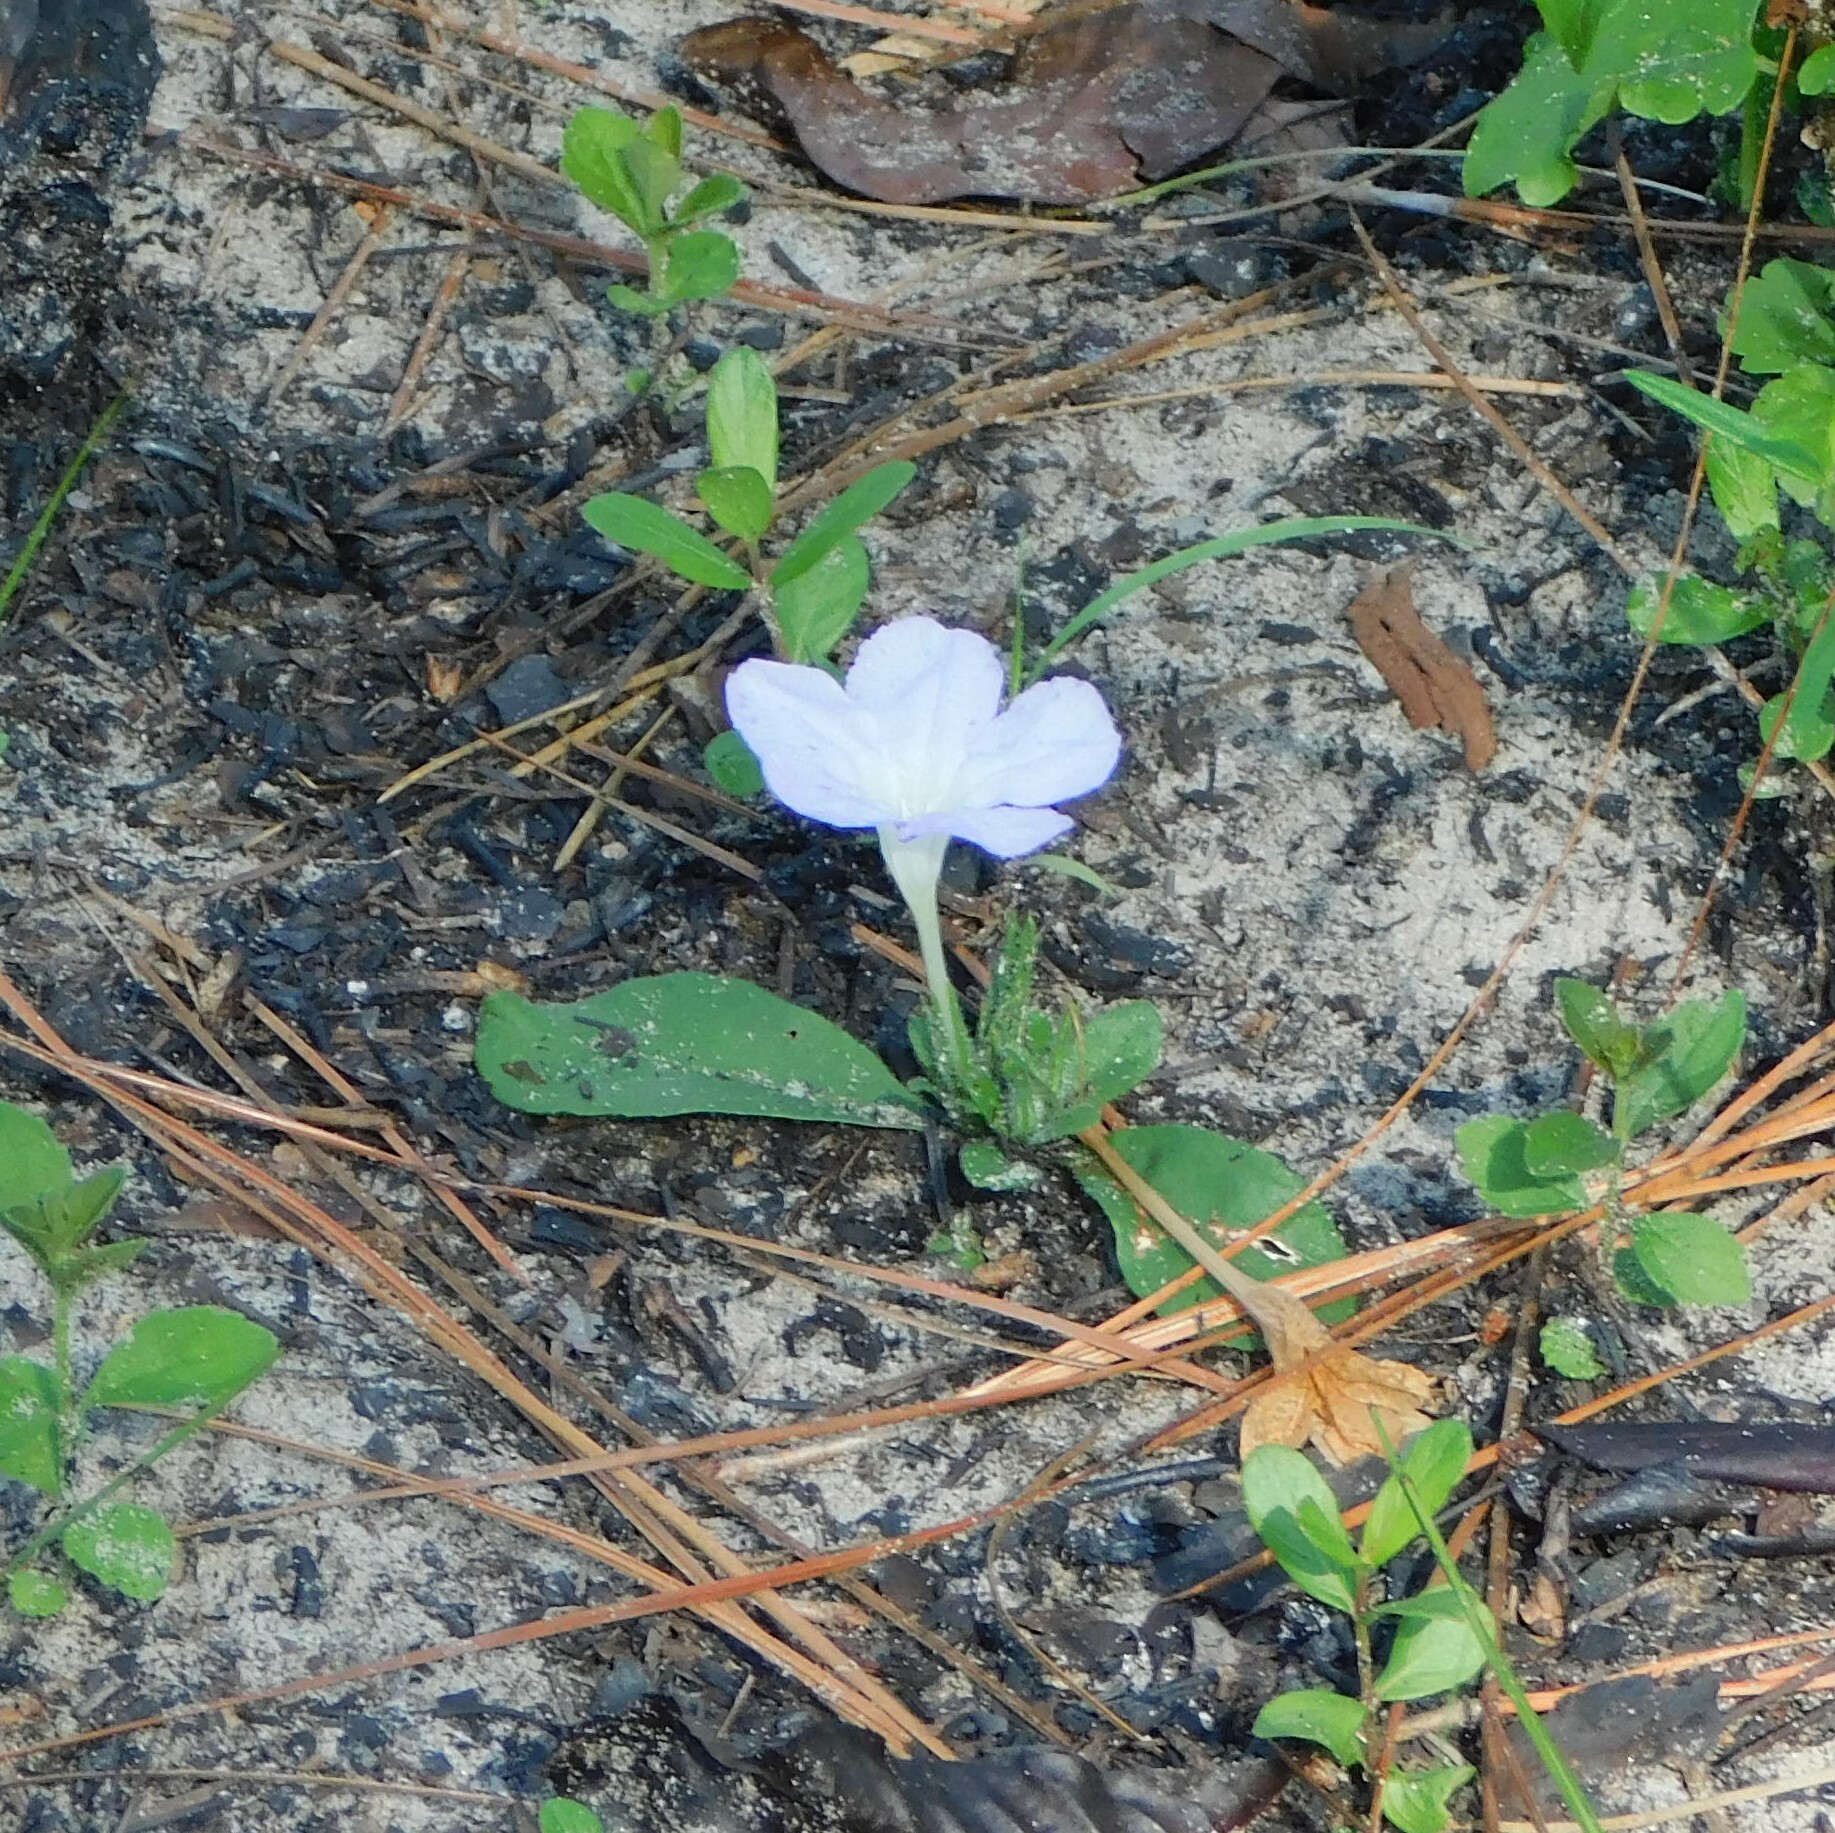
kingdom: Plantae
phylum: Tracheophyta
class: Magnoliopsida
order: Lamiales
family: Acanthaceae
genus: Ruellia
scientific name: Ruellia caroliniensis
